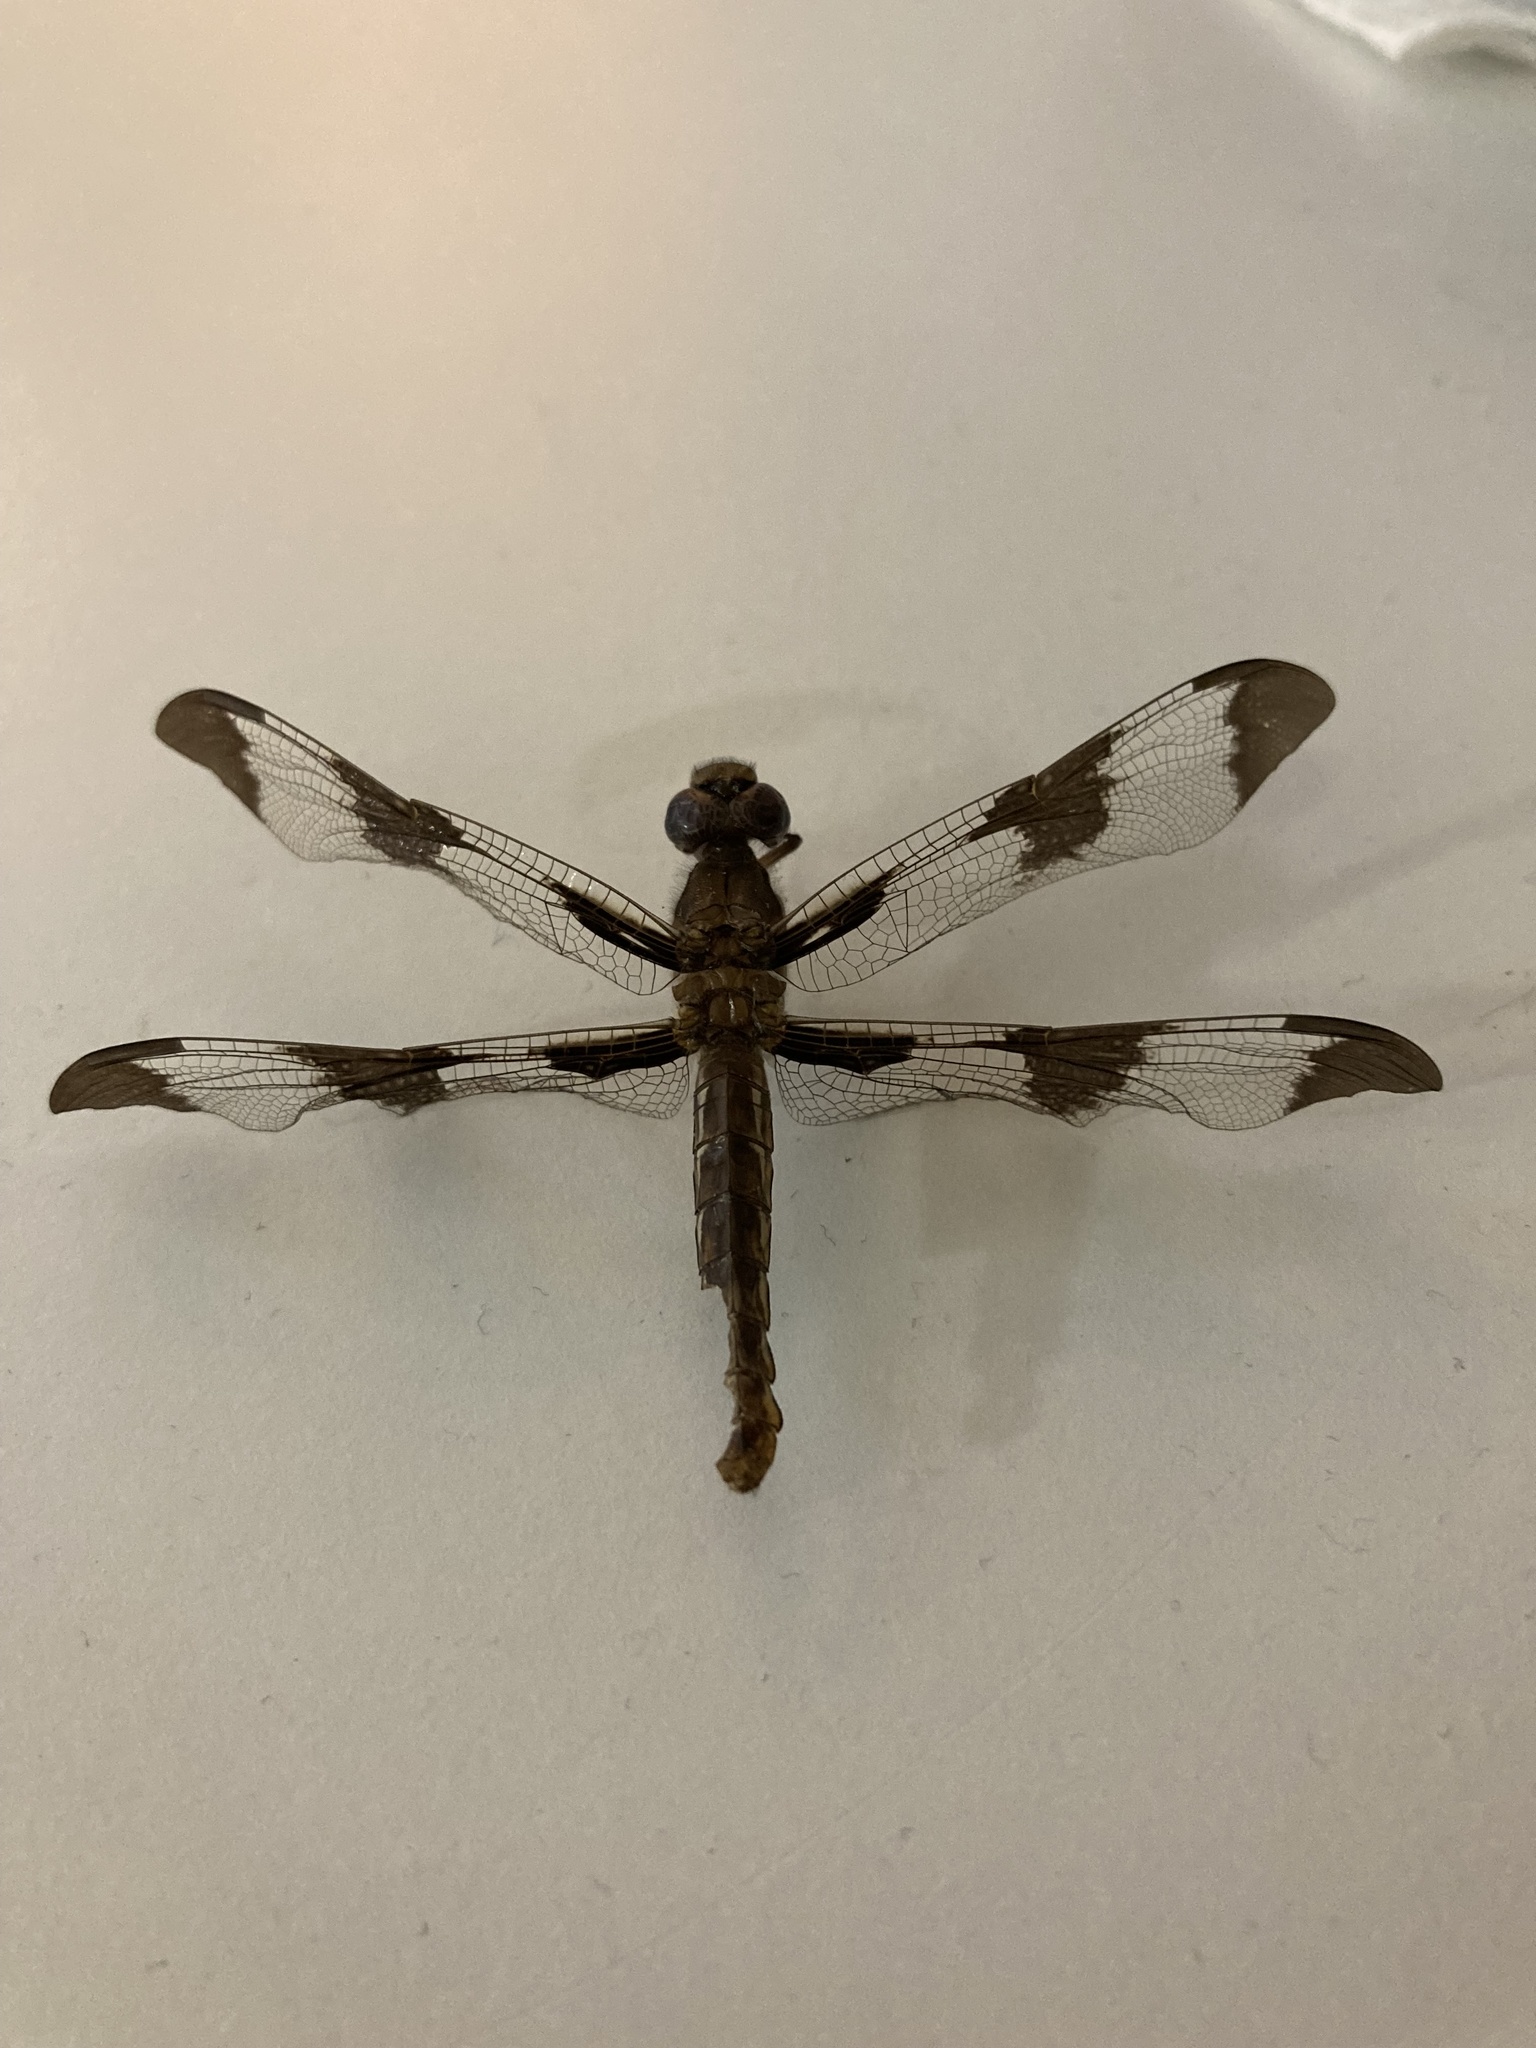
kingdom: Animalia
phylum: Arthropoda
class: Insecta
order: Odonata
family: Libellulidae
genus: Plathemis
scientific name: Plathemis lydia
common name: Common whitetail
